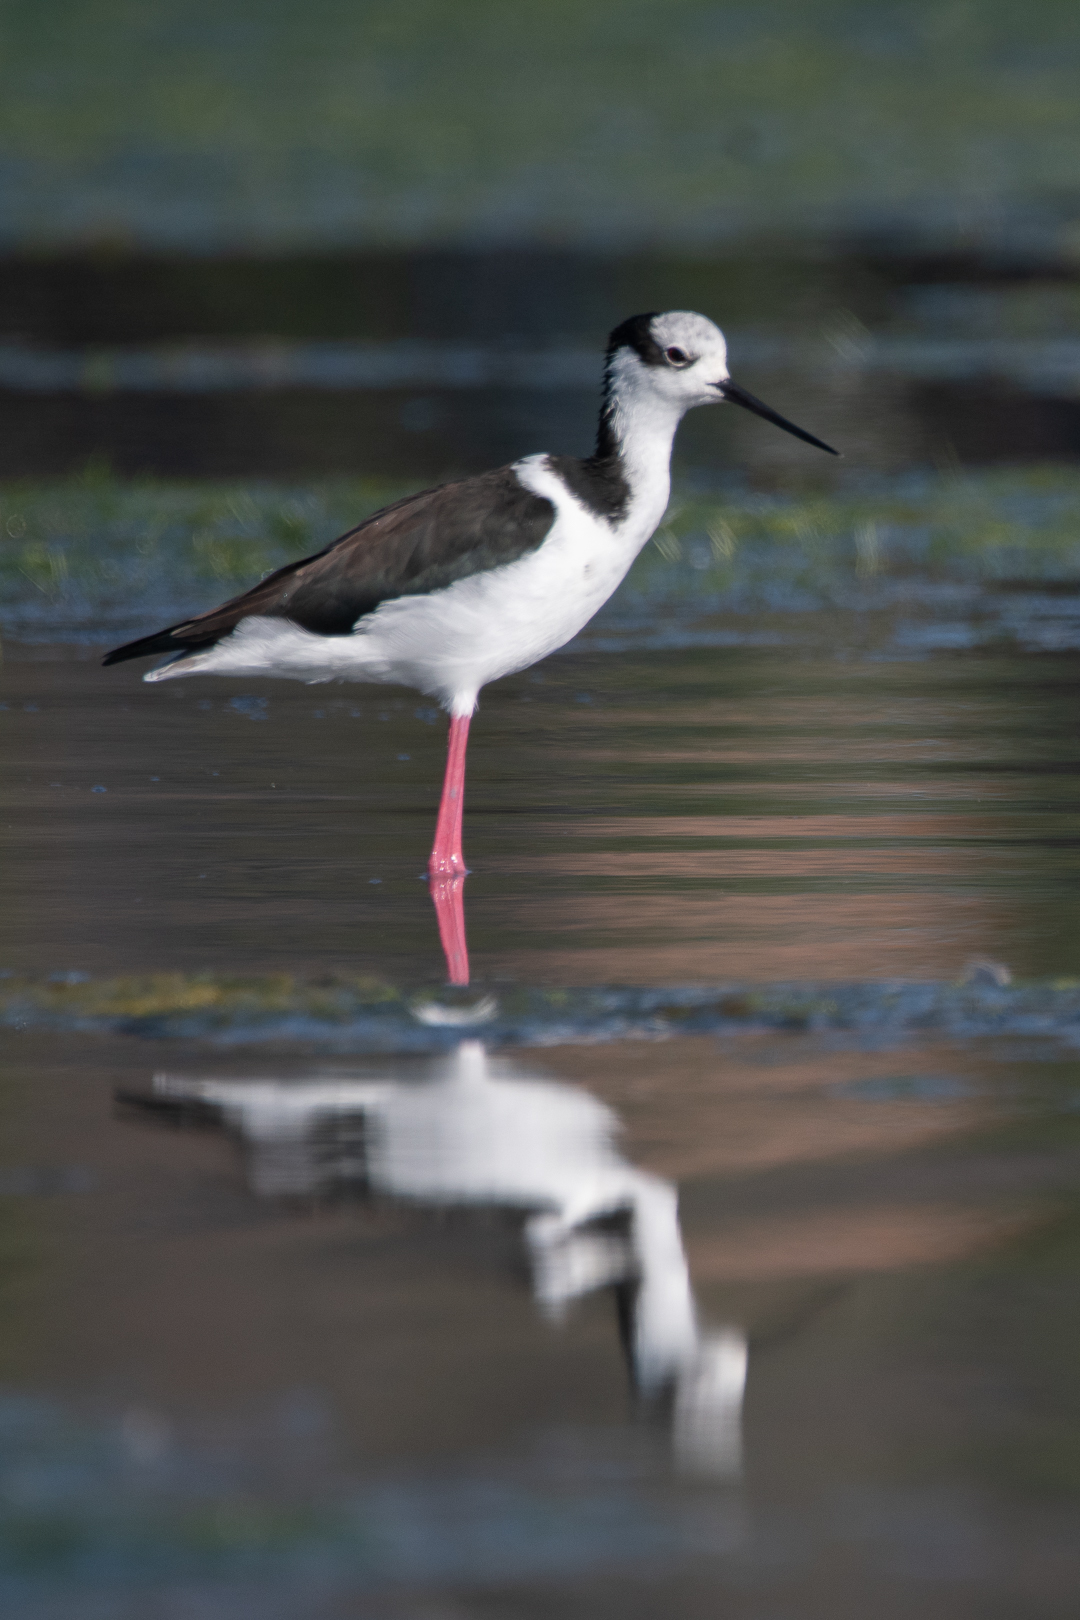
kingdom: Animalia
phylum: Chordata
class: Aves
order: Charadriiformes
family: Recurvirostridae
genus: Himantopus
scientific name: Himantopus mexicanus
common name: Black-necked stilt
